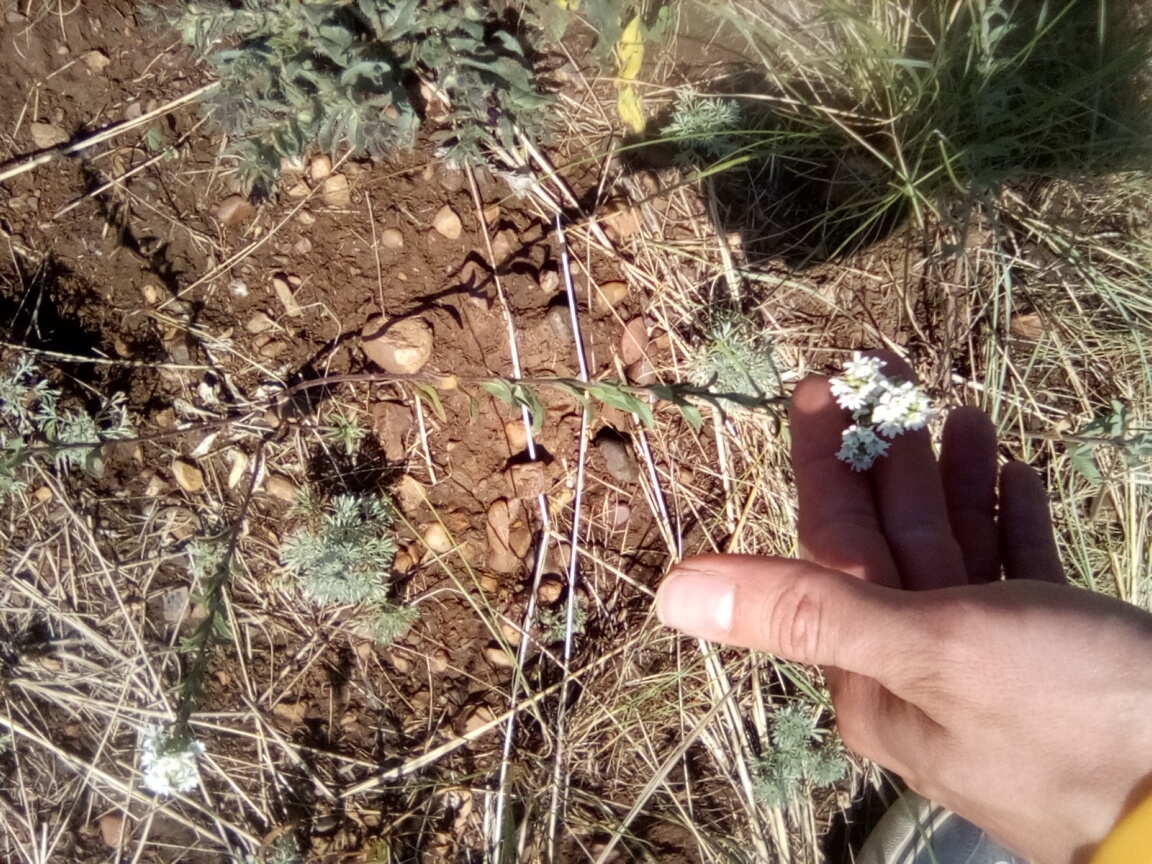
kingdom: Plantae
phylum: Tracheophyta
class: Magnoliopsida
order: Brassicales
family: Brassicaceae
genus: Berteroa
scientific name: Berteroa incana
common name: Hoary alison
